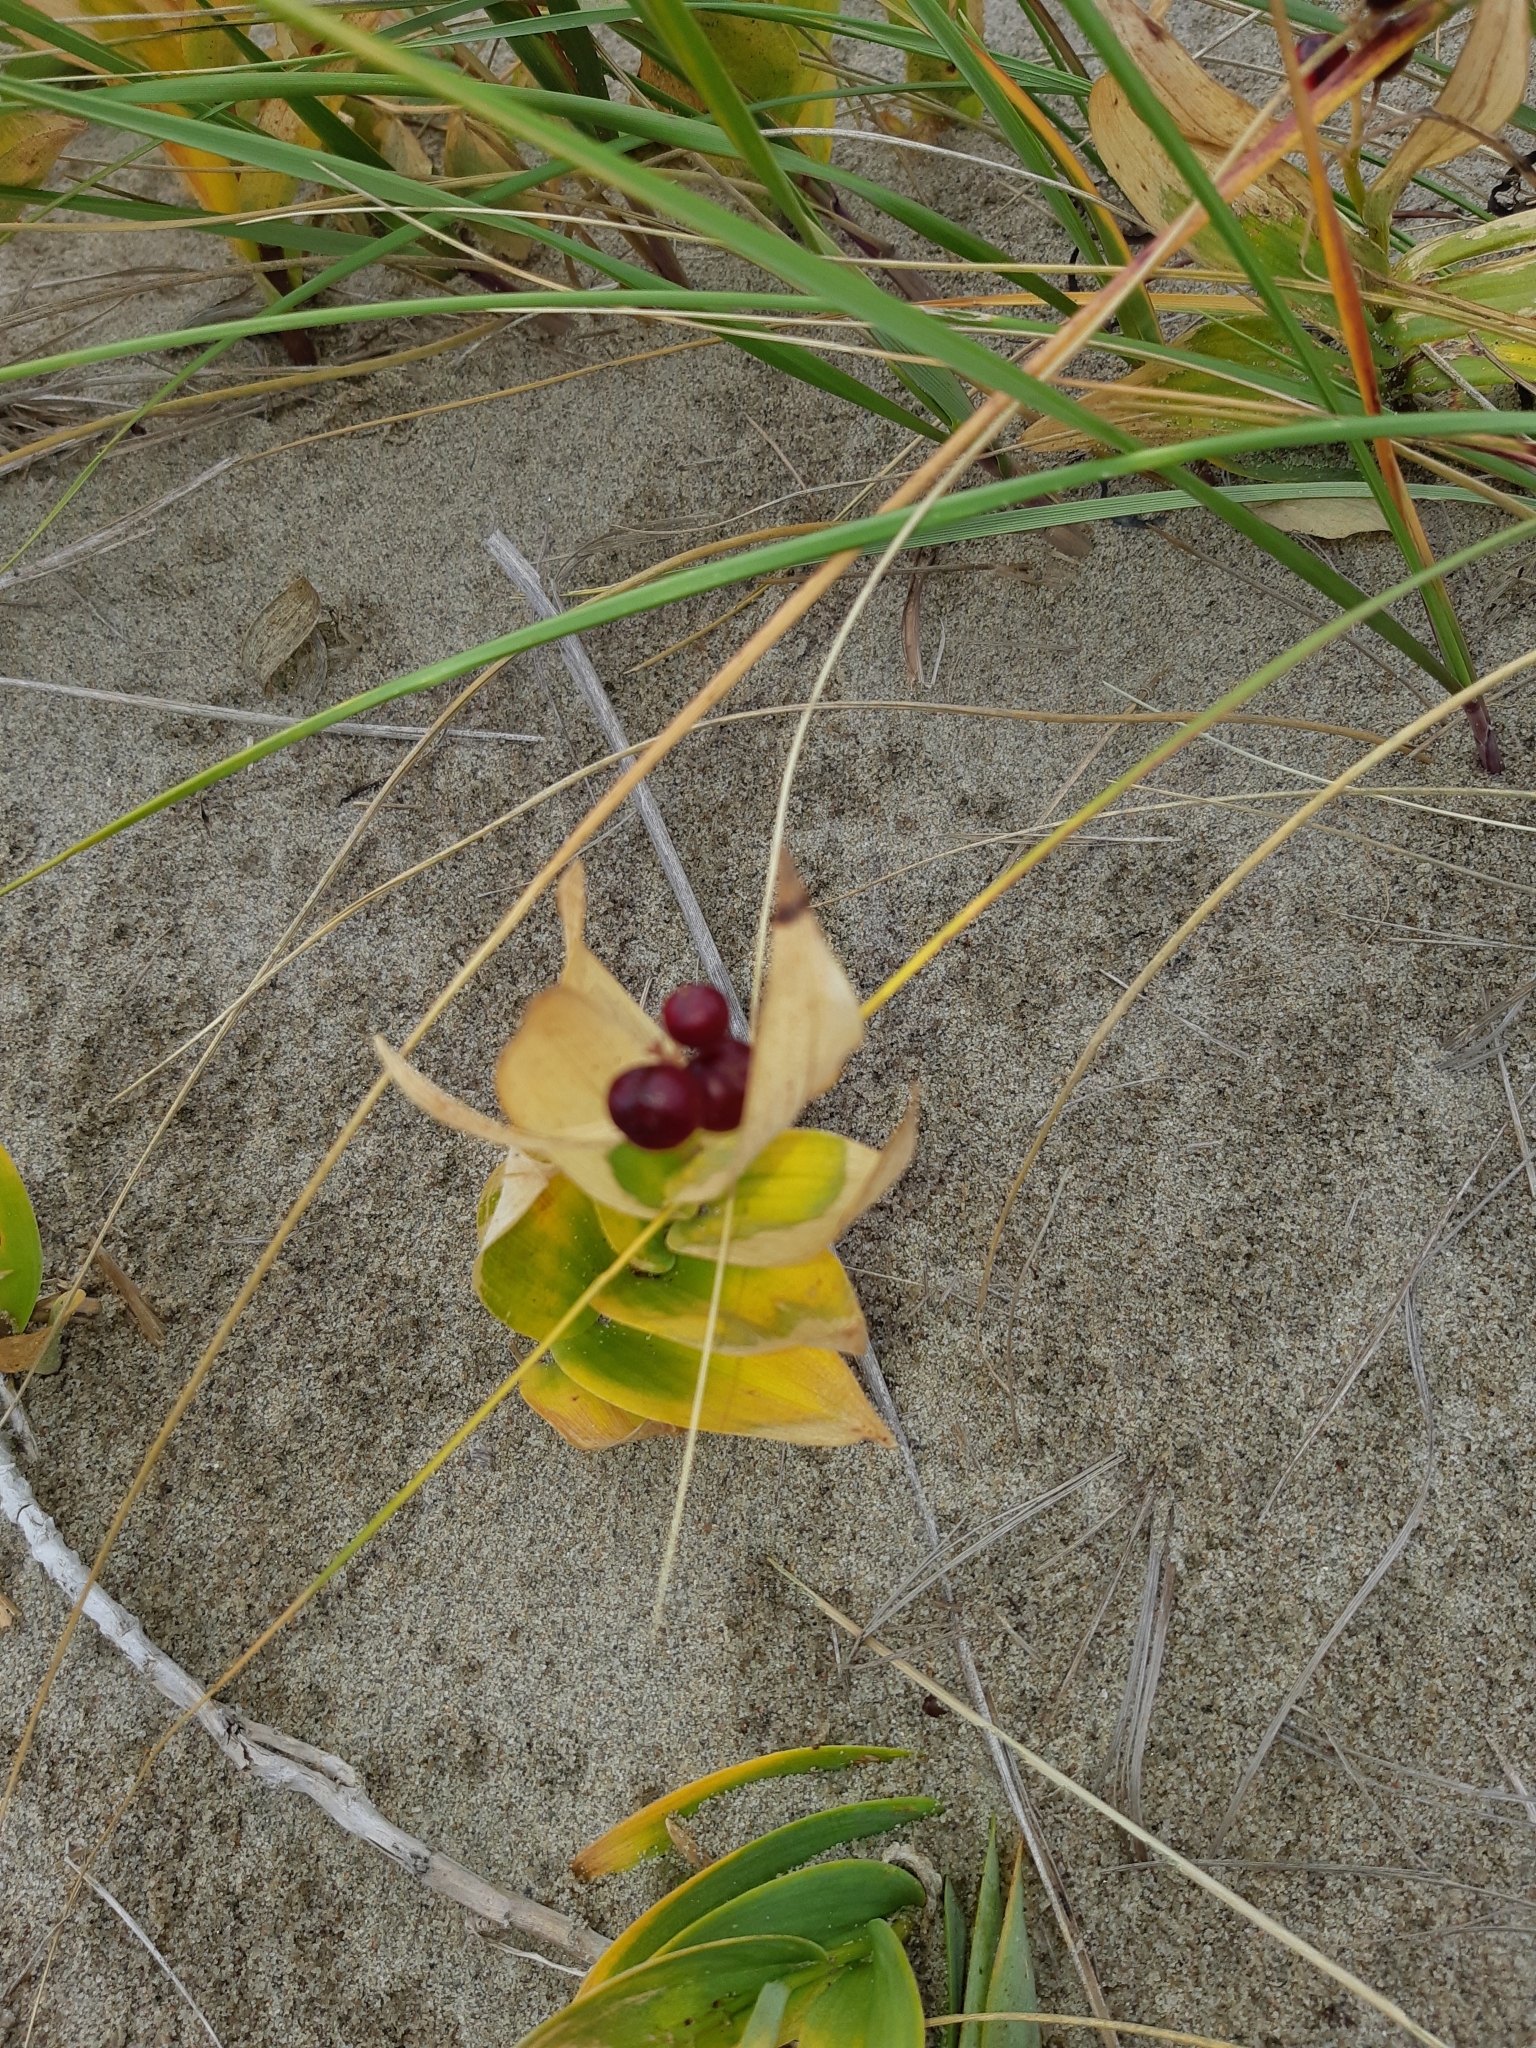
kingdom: Plantae
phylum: Tracheophyta
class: Liliopsida
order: Asparagales
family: Asparagaceae
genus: Maianthemum
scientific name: Maianthemum stellatum
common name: Little false solomon's seal
